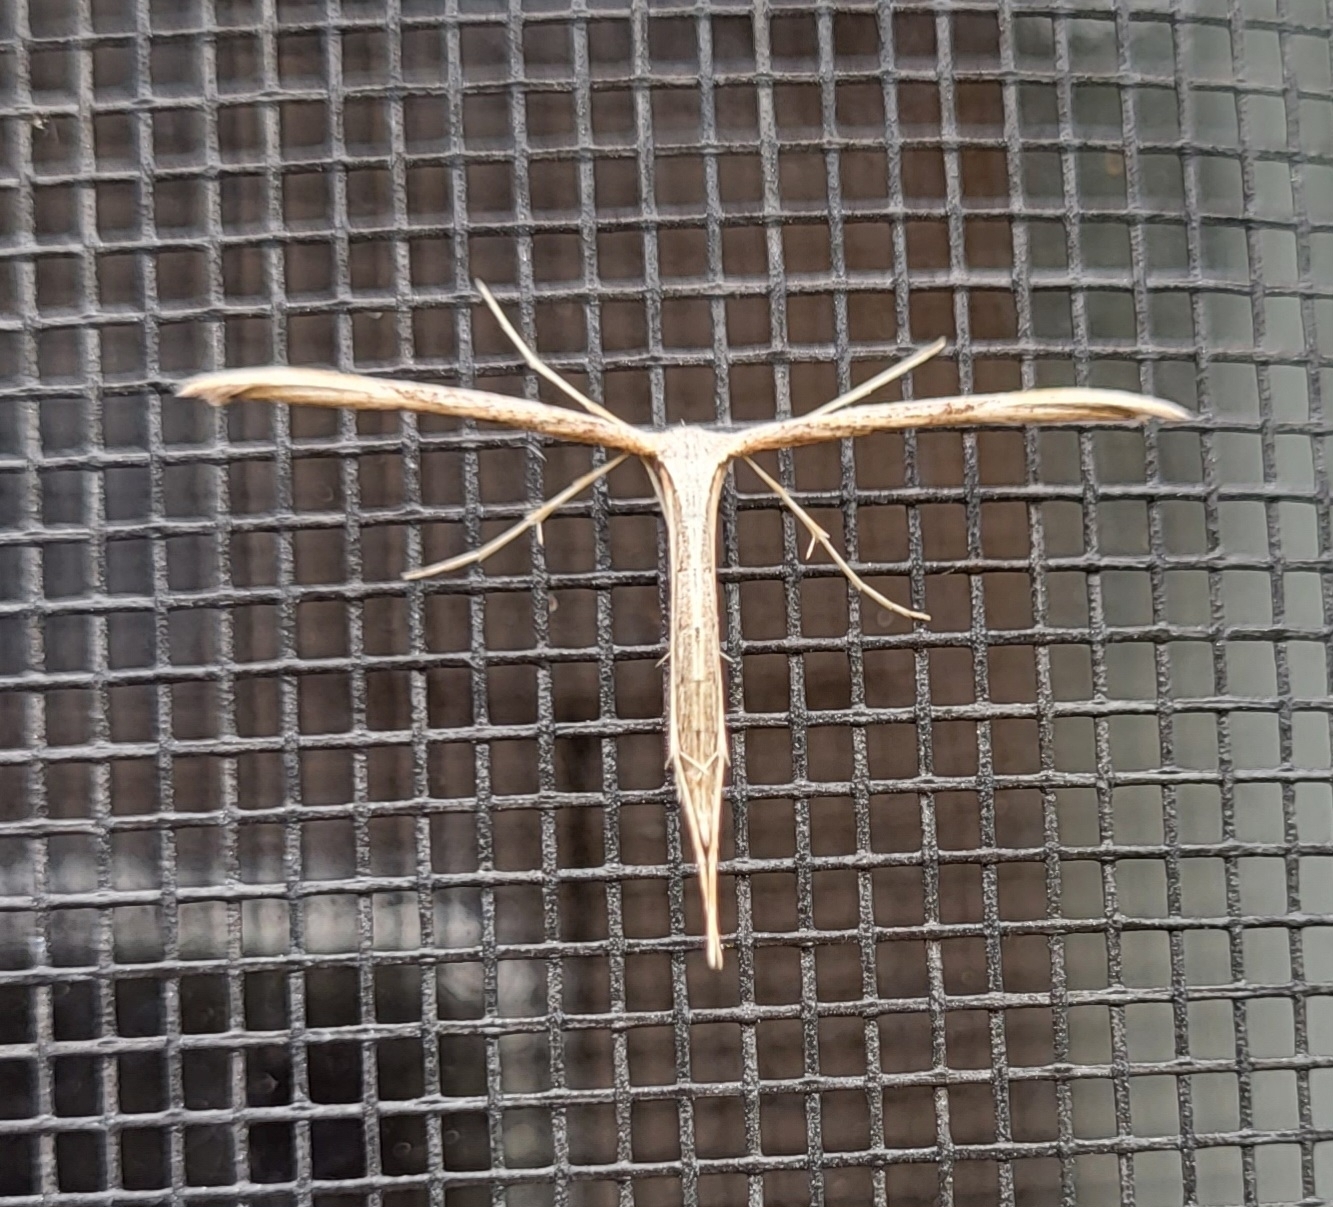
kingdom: Animalia
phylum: Arthropoda
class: Insecta
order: Lepidoptera
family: Pterophoridae
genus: Emmelina
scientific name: Emmelina monodactyla
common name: Common plume
